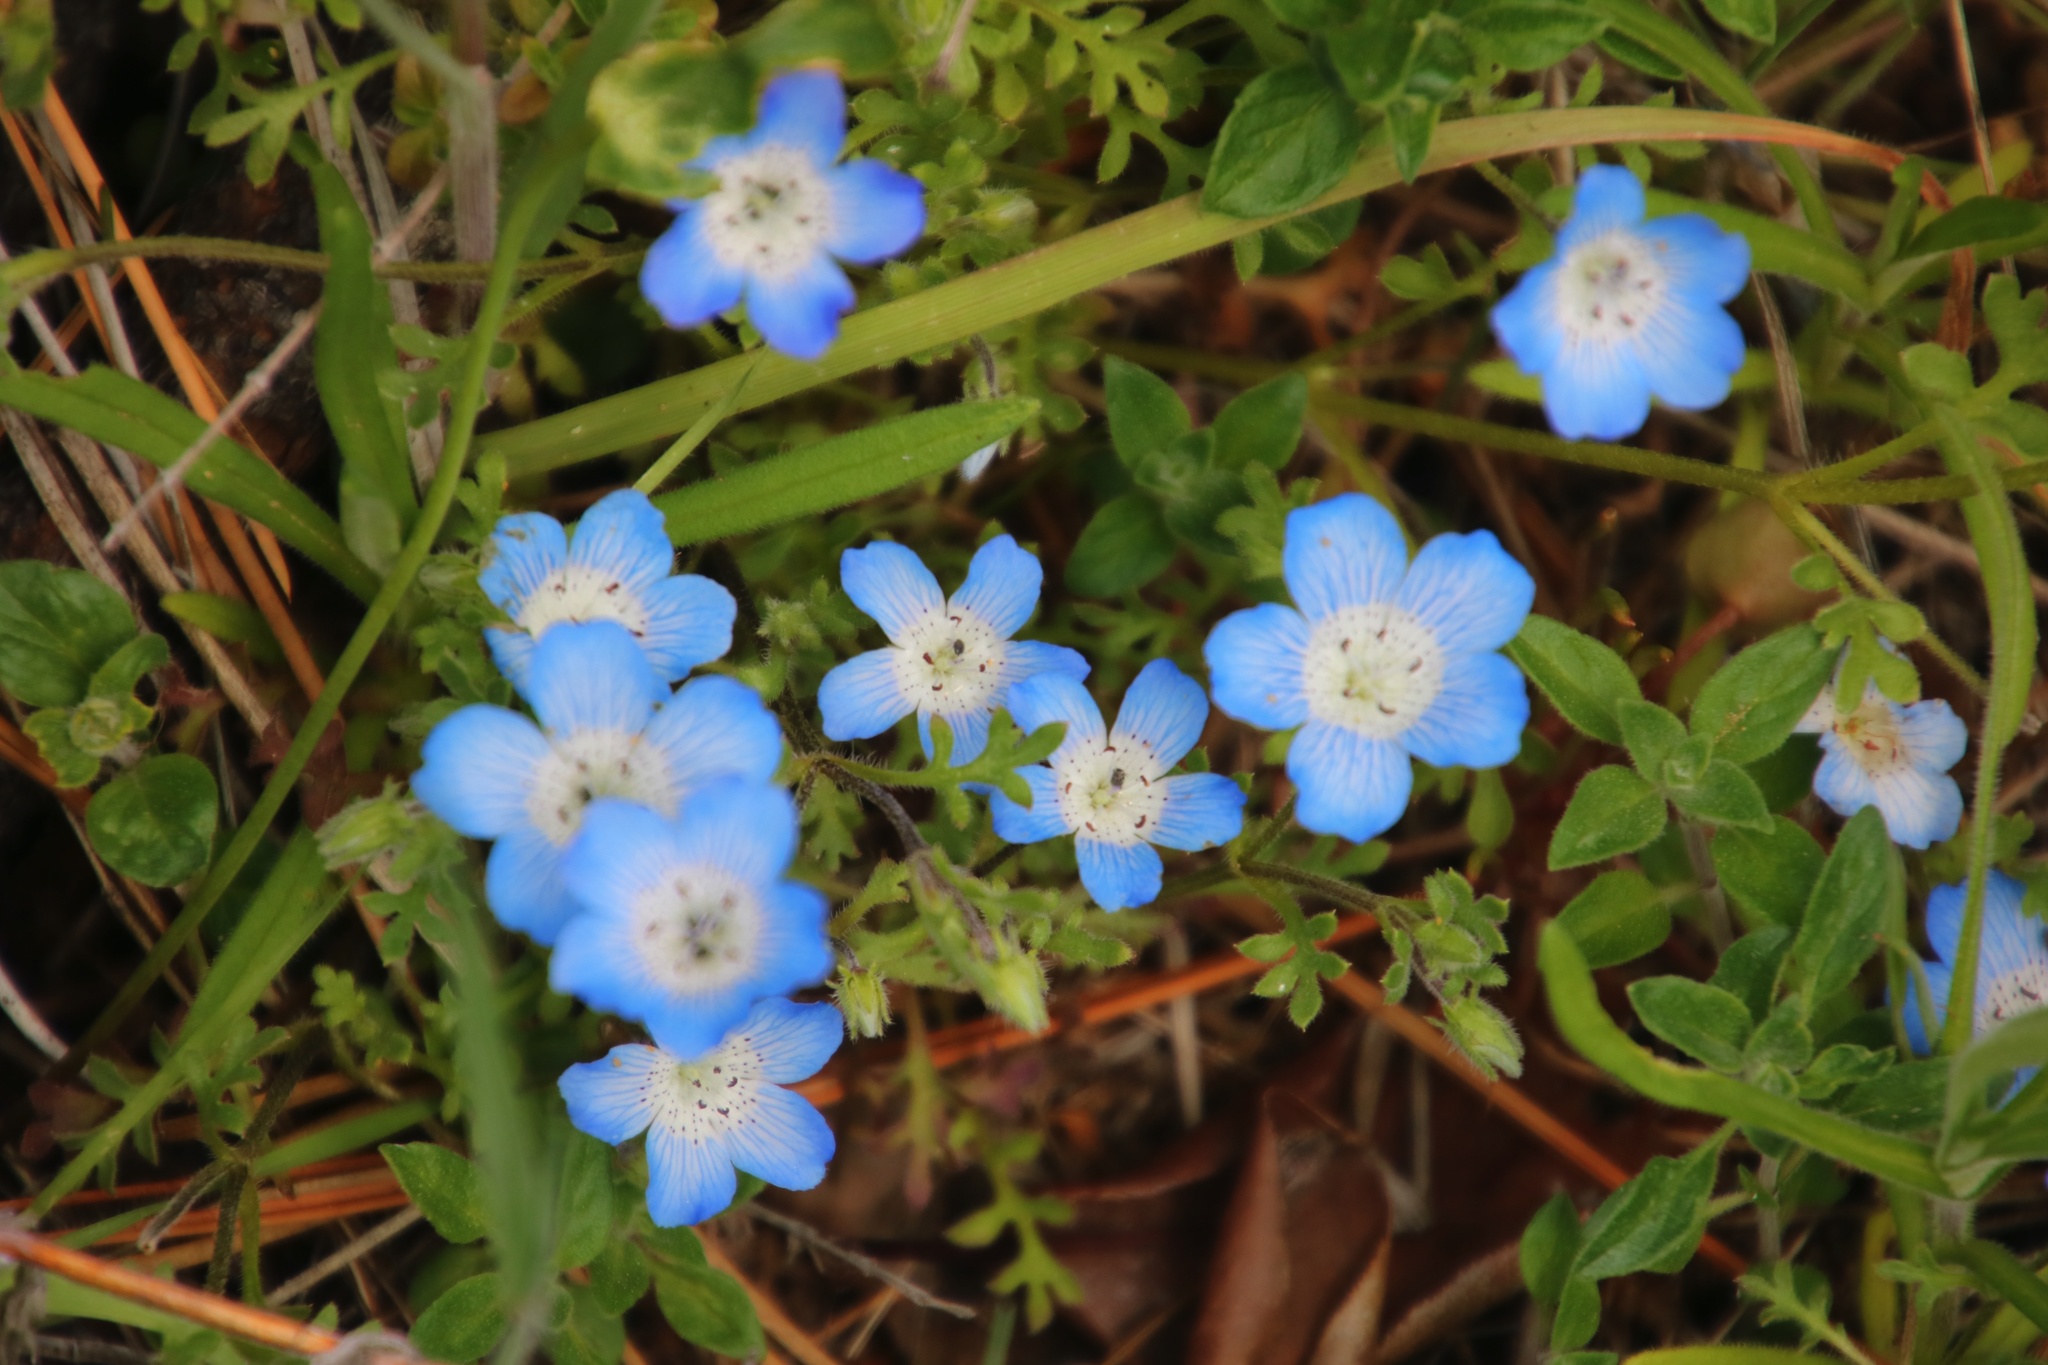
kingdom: Plantae
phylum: Tracheophyta
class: Magnoliopsida
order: Boraginales
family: Hydrophyllaceae
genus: Nemophila
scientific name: Nemophila menziesii
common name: Baby's-blue-eyes
